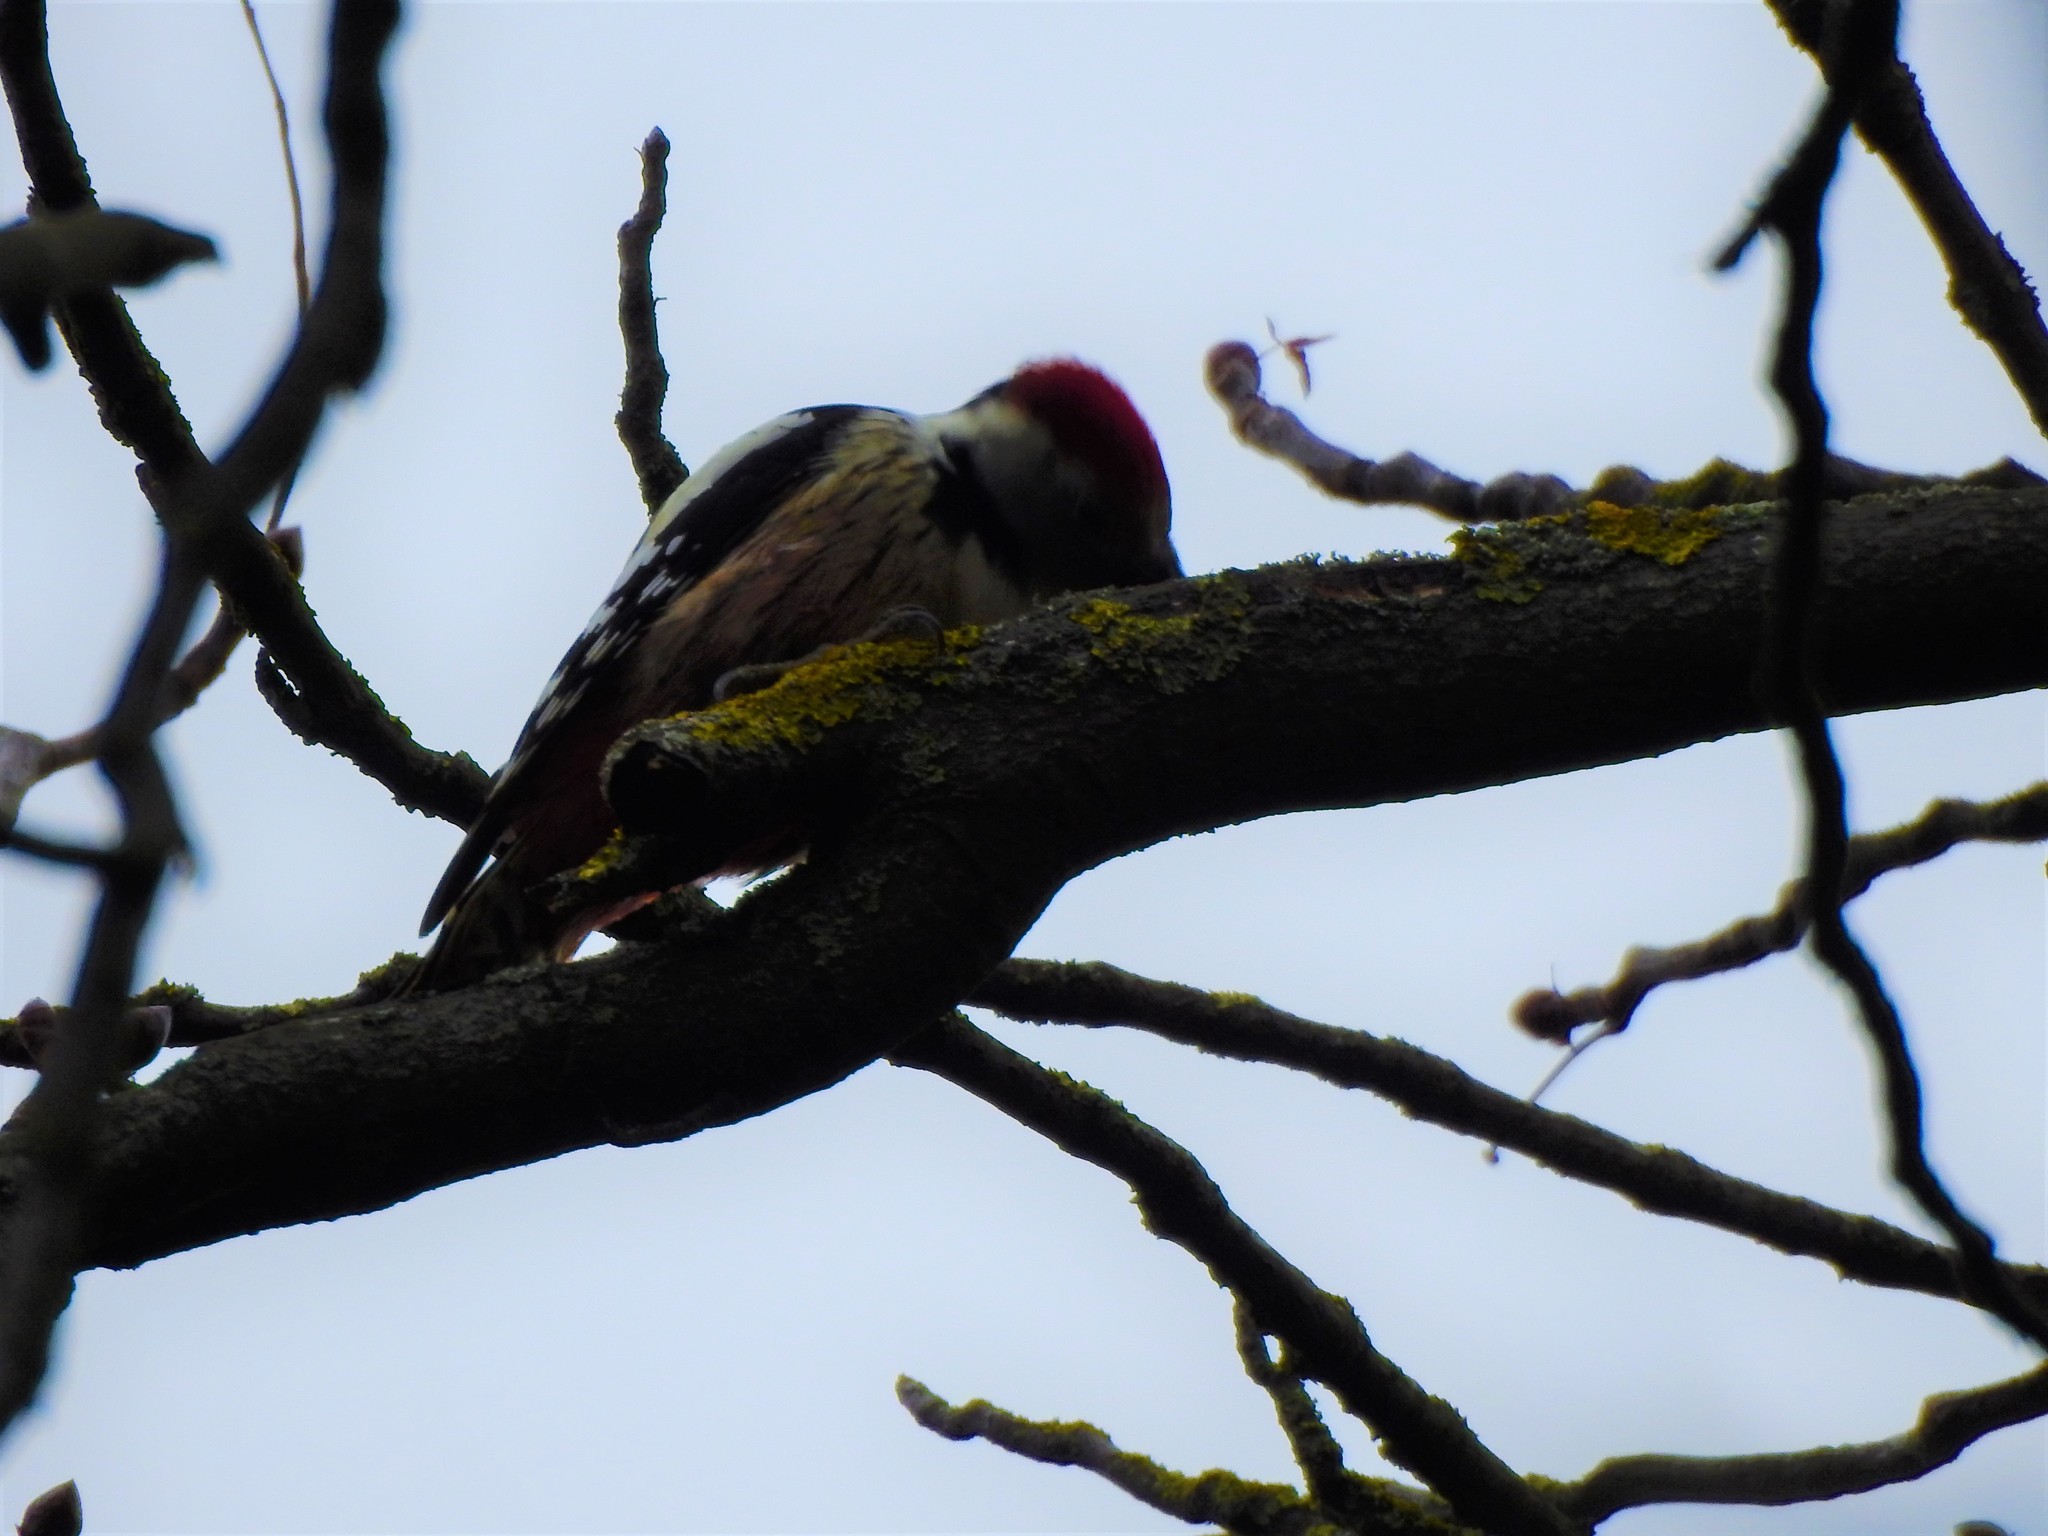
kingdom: Animalia
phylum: Chordata
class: Aves
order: Piciformes
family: Picidae
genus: Dendrocoptes
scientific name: Dendrocoptes medius
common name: Middle spotted woodpecker
